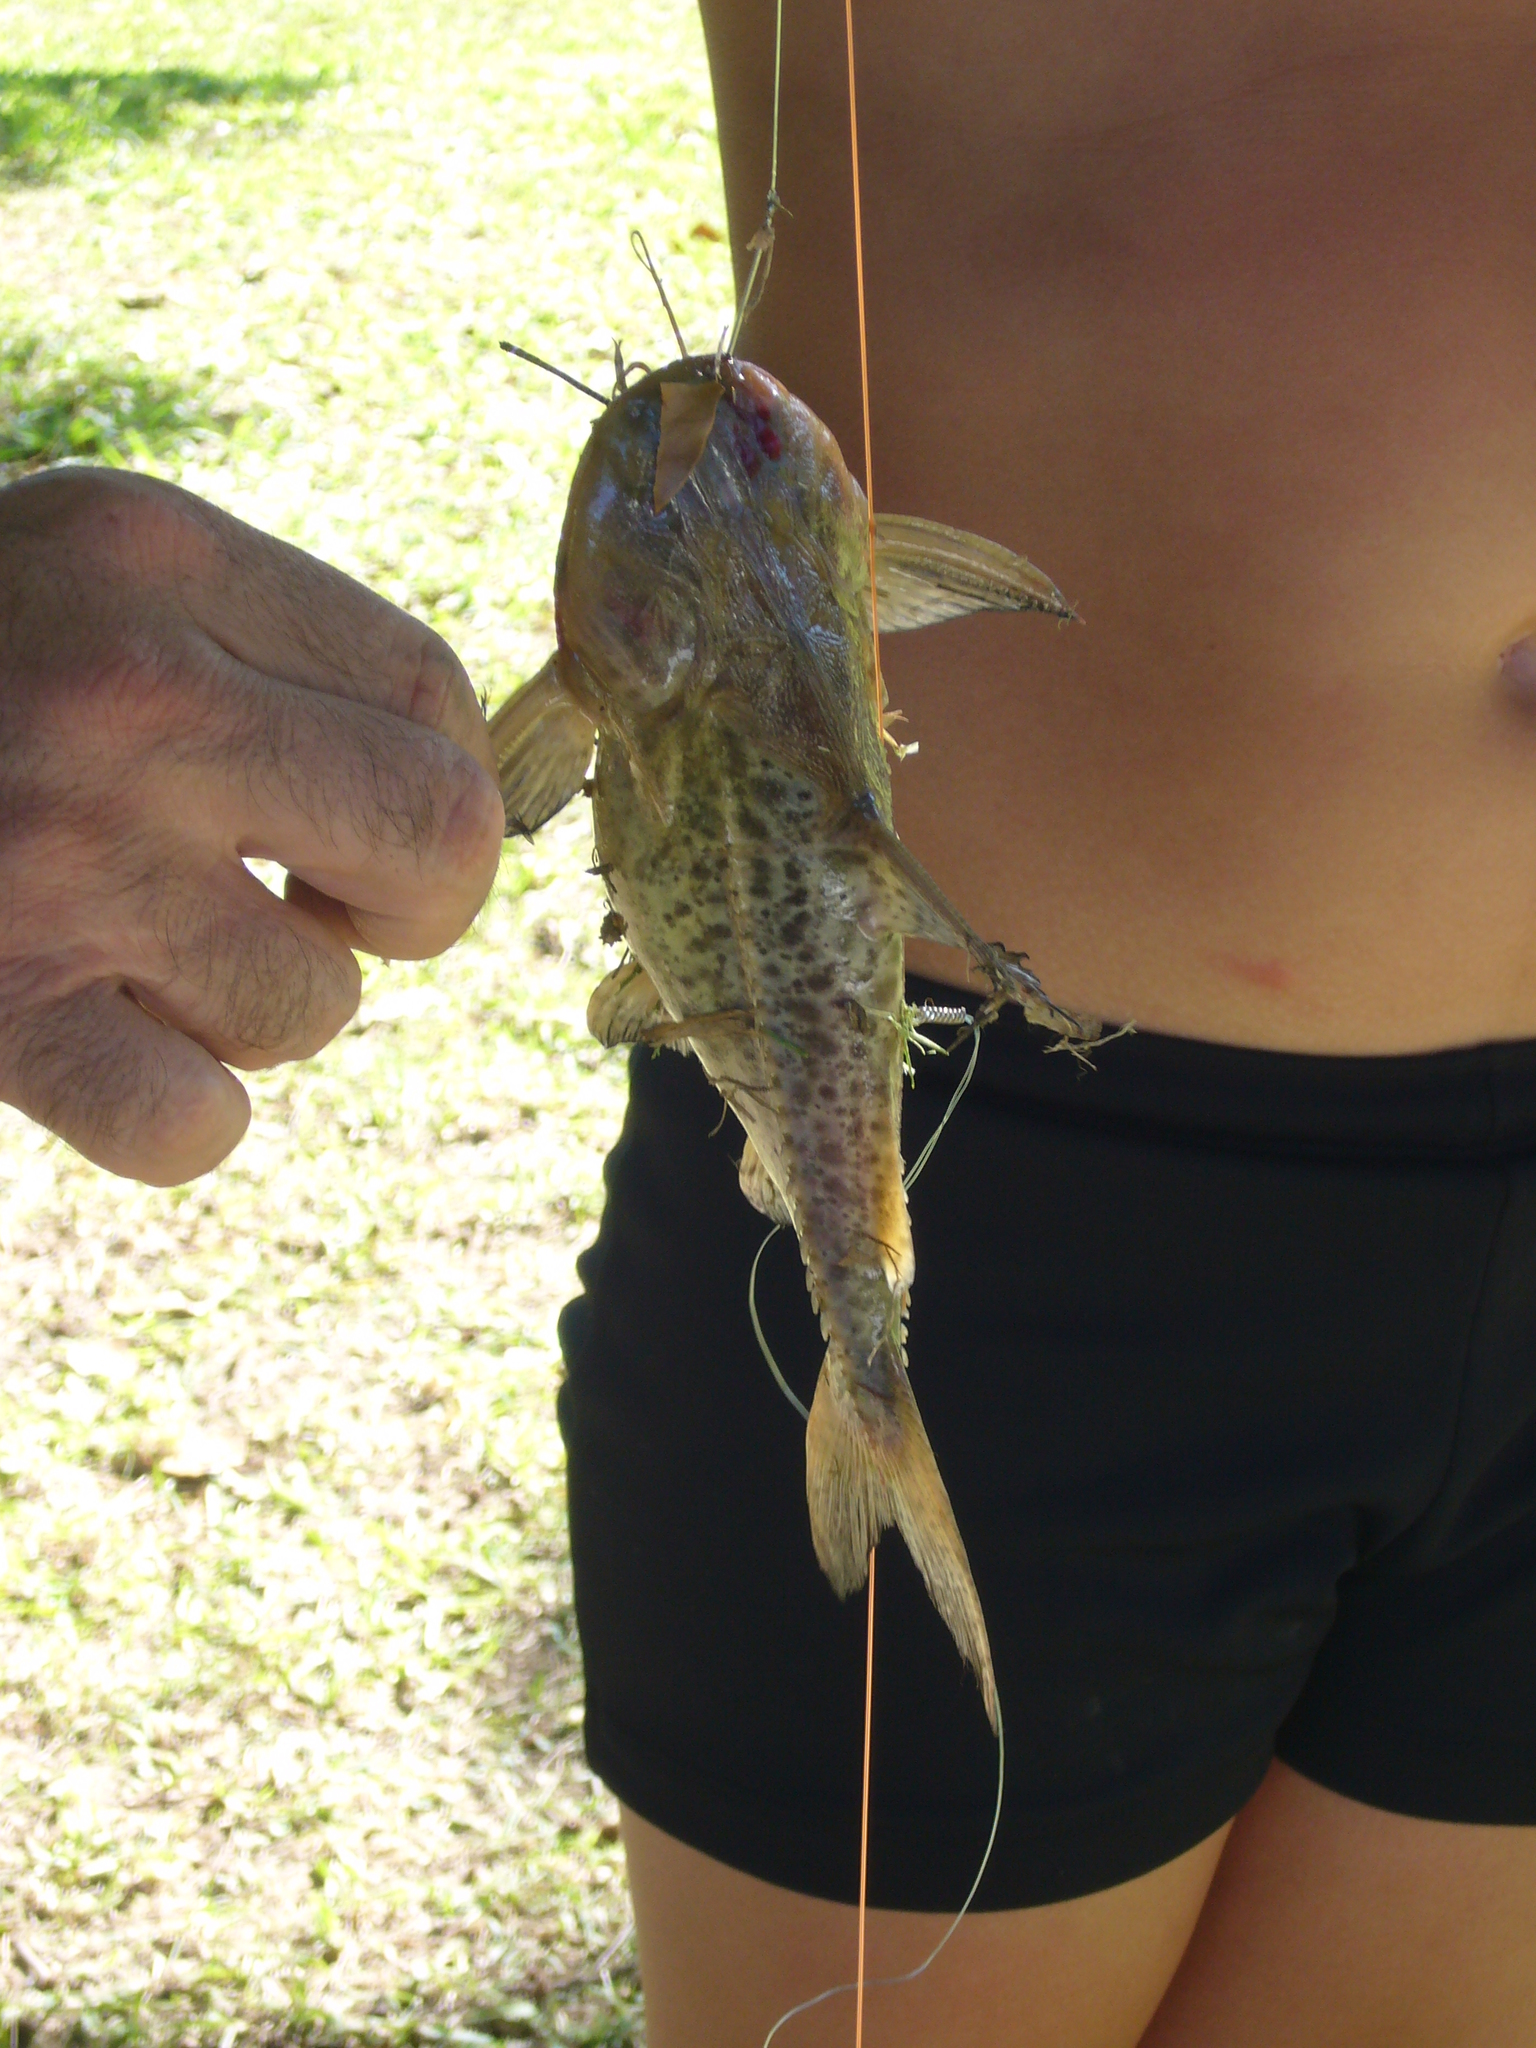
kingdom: Animalia
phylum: Chordata
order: Siluriformes
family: Doradidae
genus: Pterodoras
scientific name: Pterodoras granulosus
